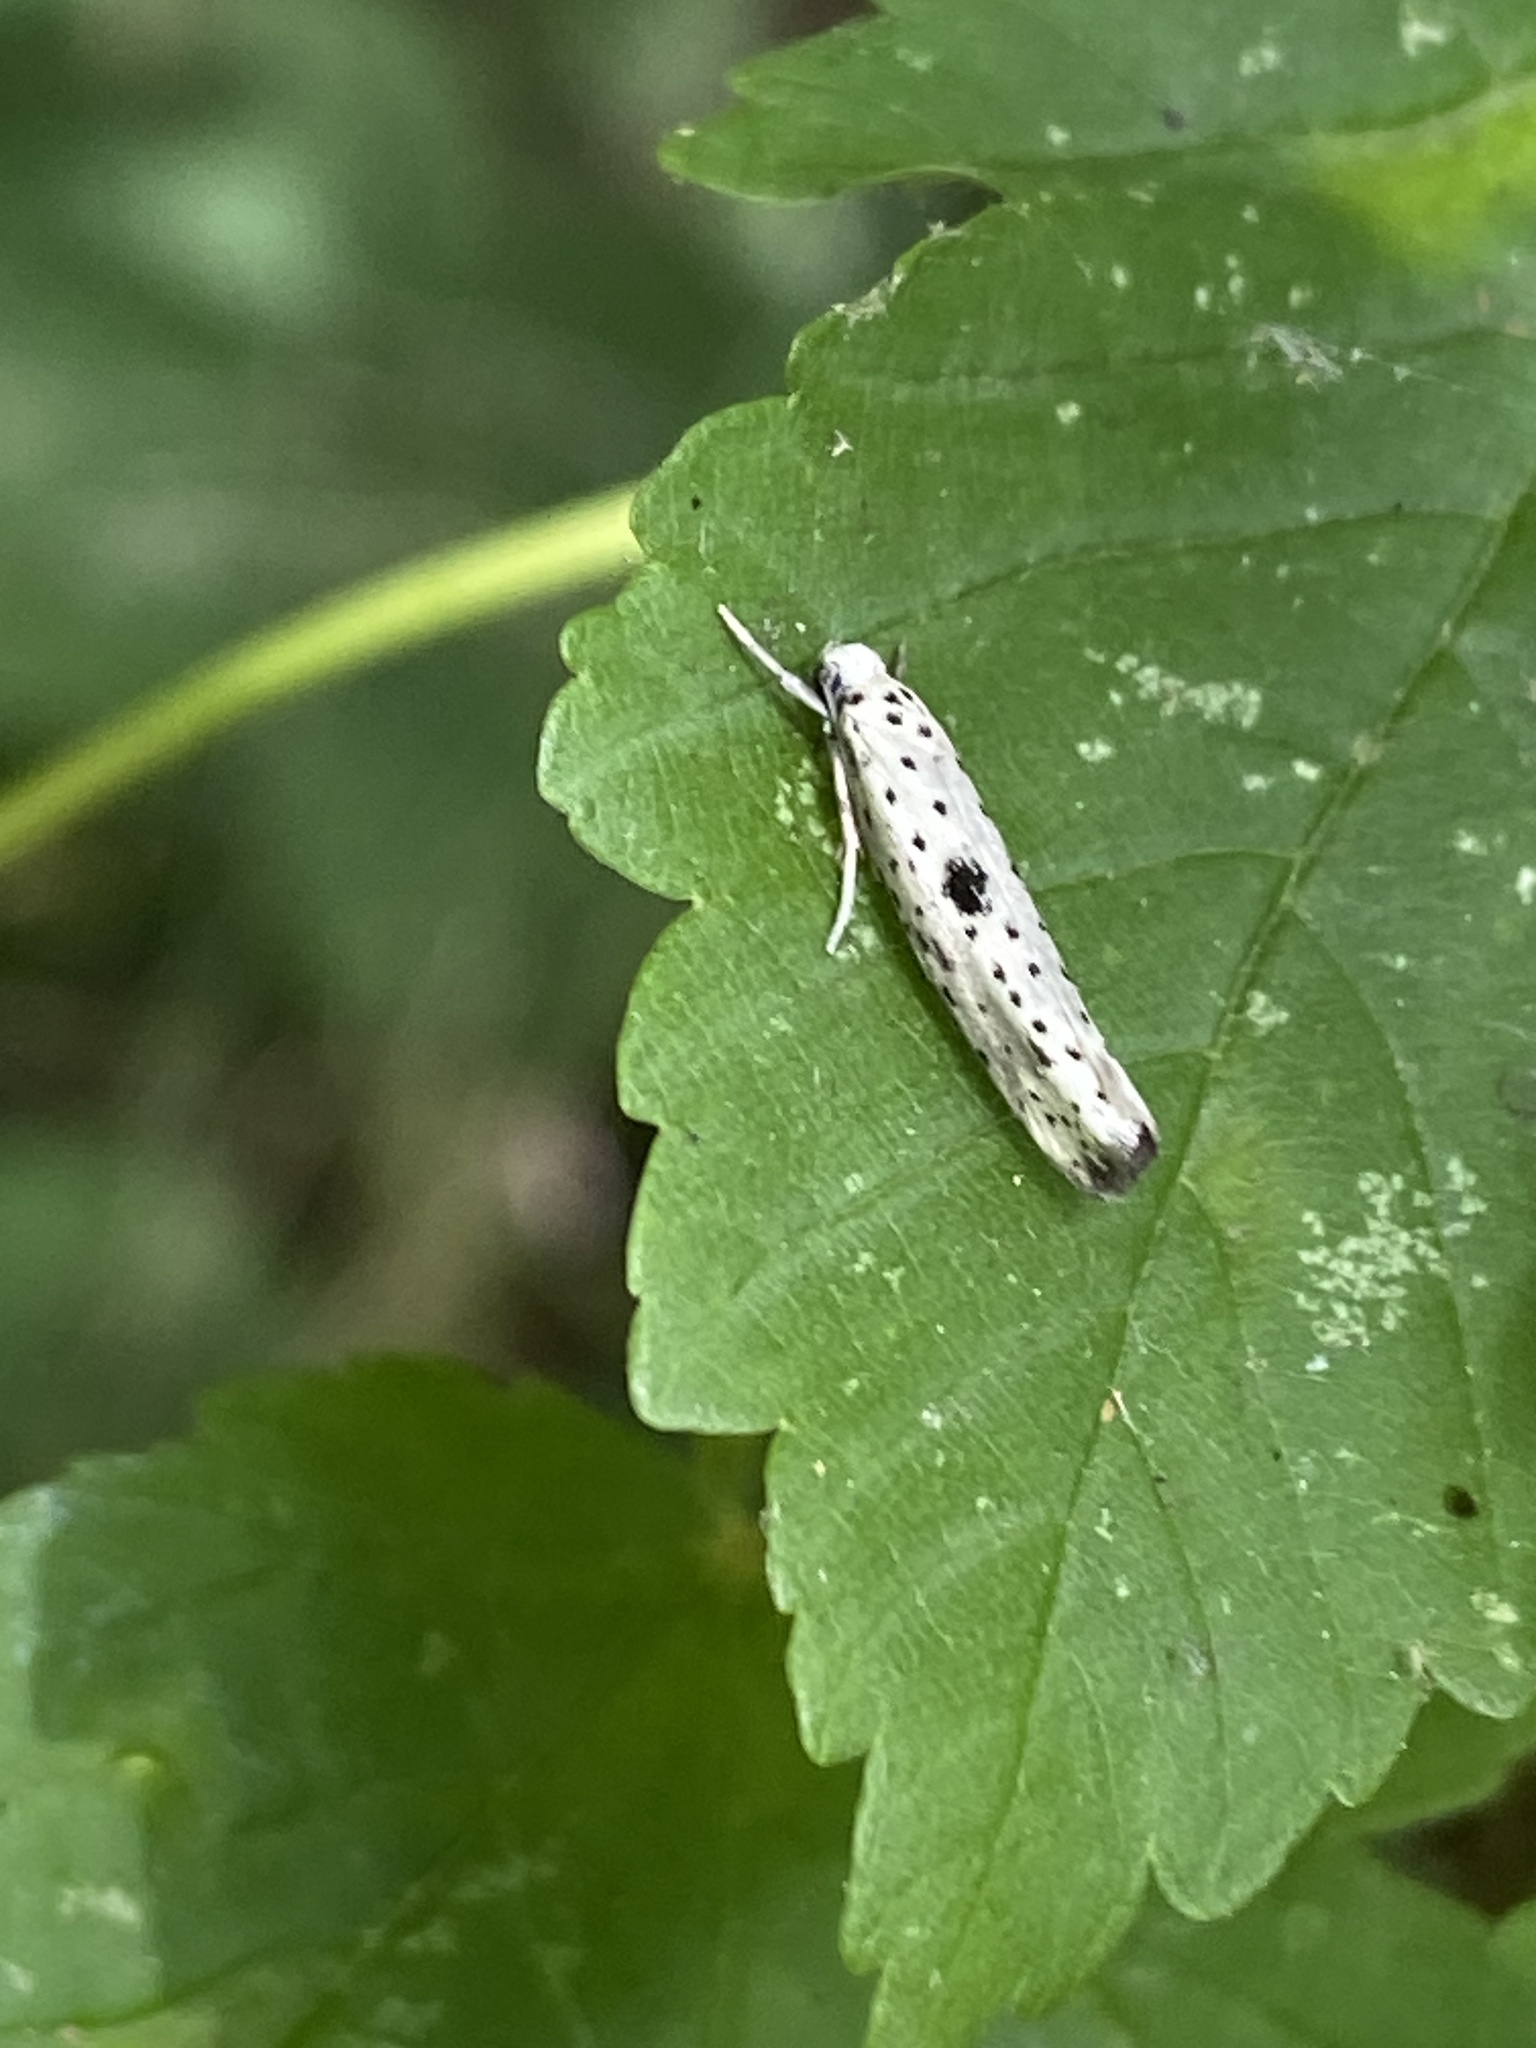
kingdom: Animalia
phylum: Arthropoda
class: Insecta
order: Lepidoptera
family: Yponomeutidae
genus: Yponomeuta
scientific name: Yponomeuta plumbella
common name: Black-tipped ermine
